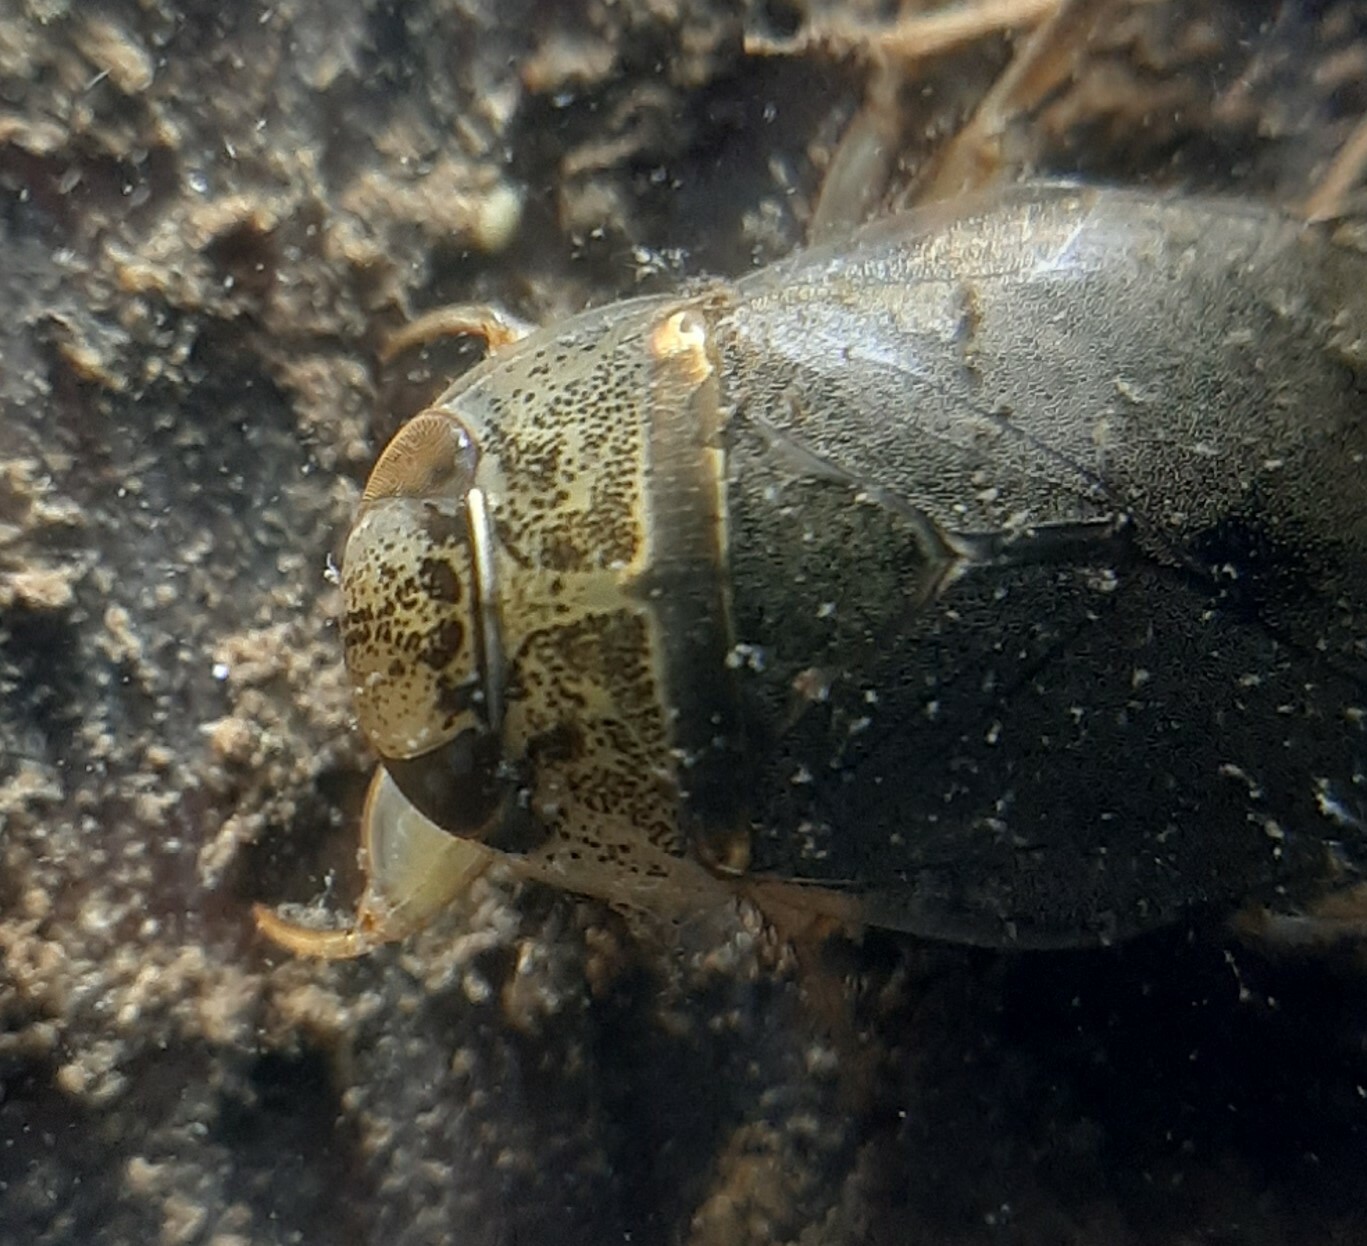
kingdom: Animalia
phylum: Arthropoda
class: Insecta
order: Hemiptera
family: Naucoridae
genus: Ilyocoris
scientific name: Ilyocoris cimicoides
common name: Saucer bugs
